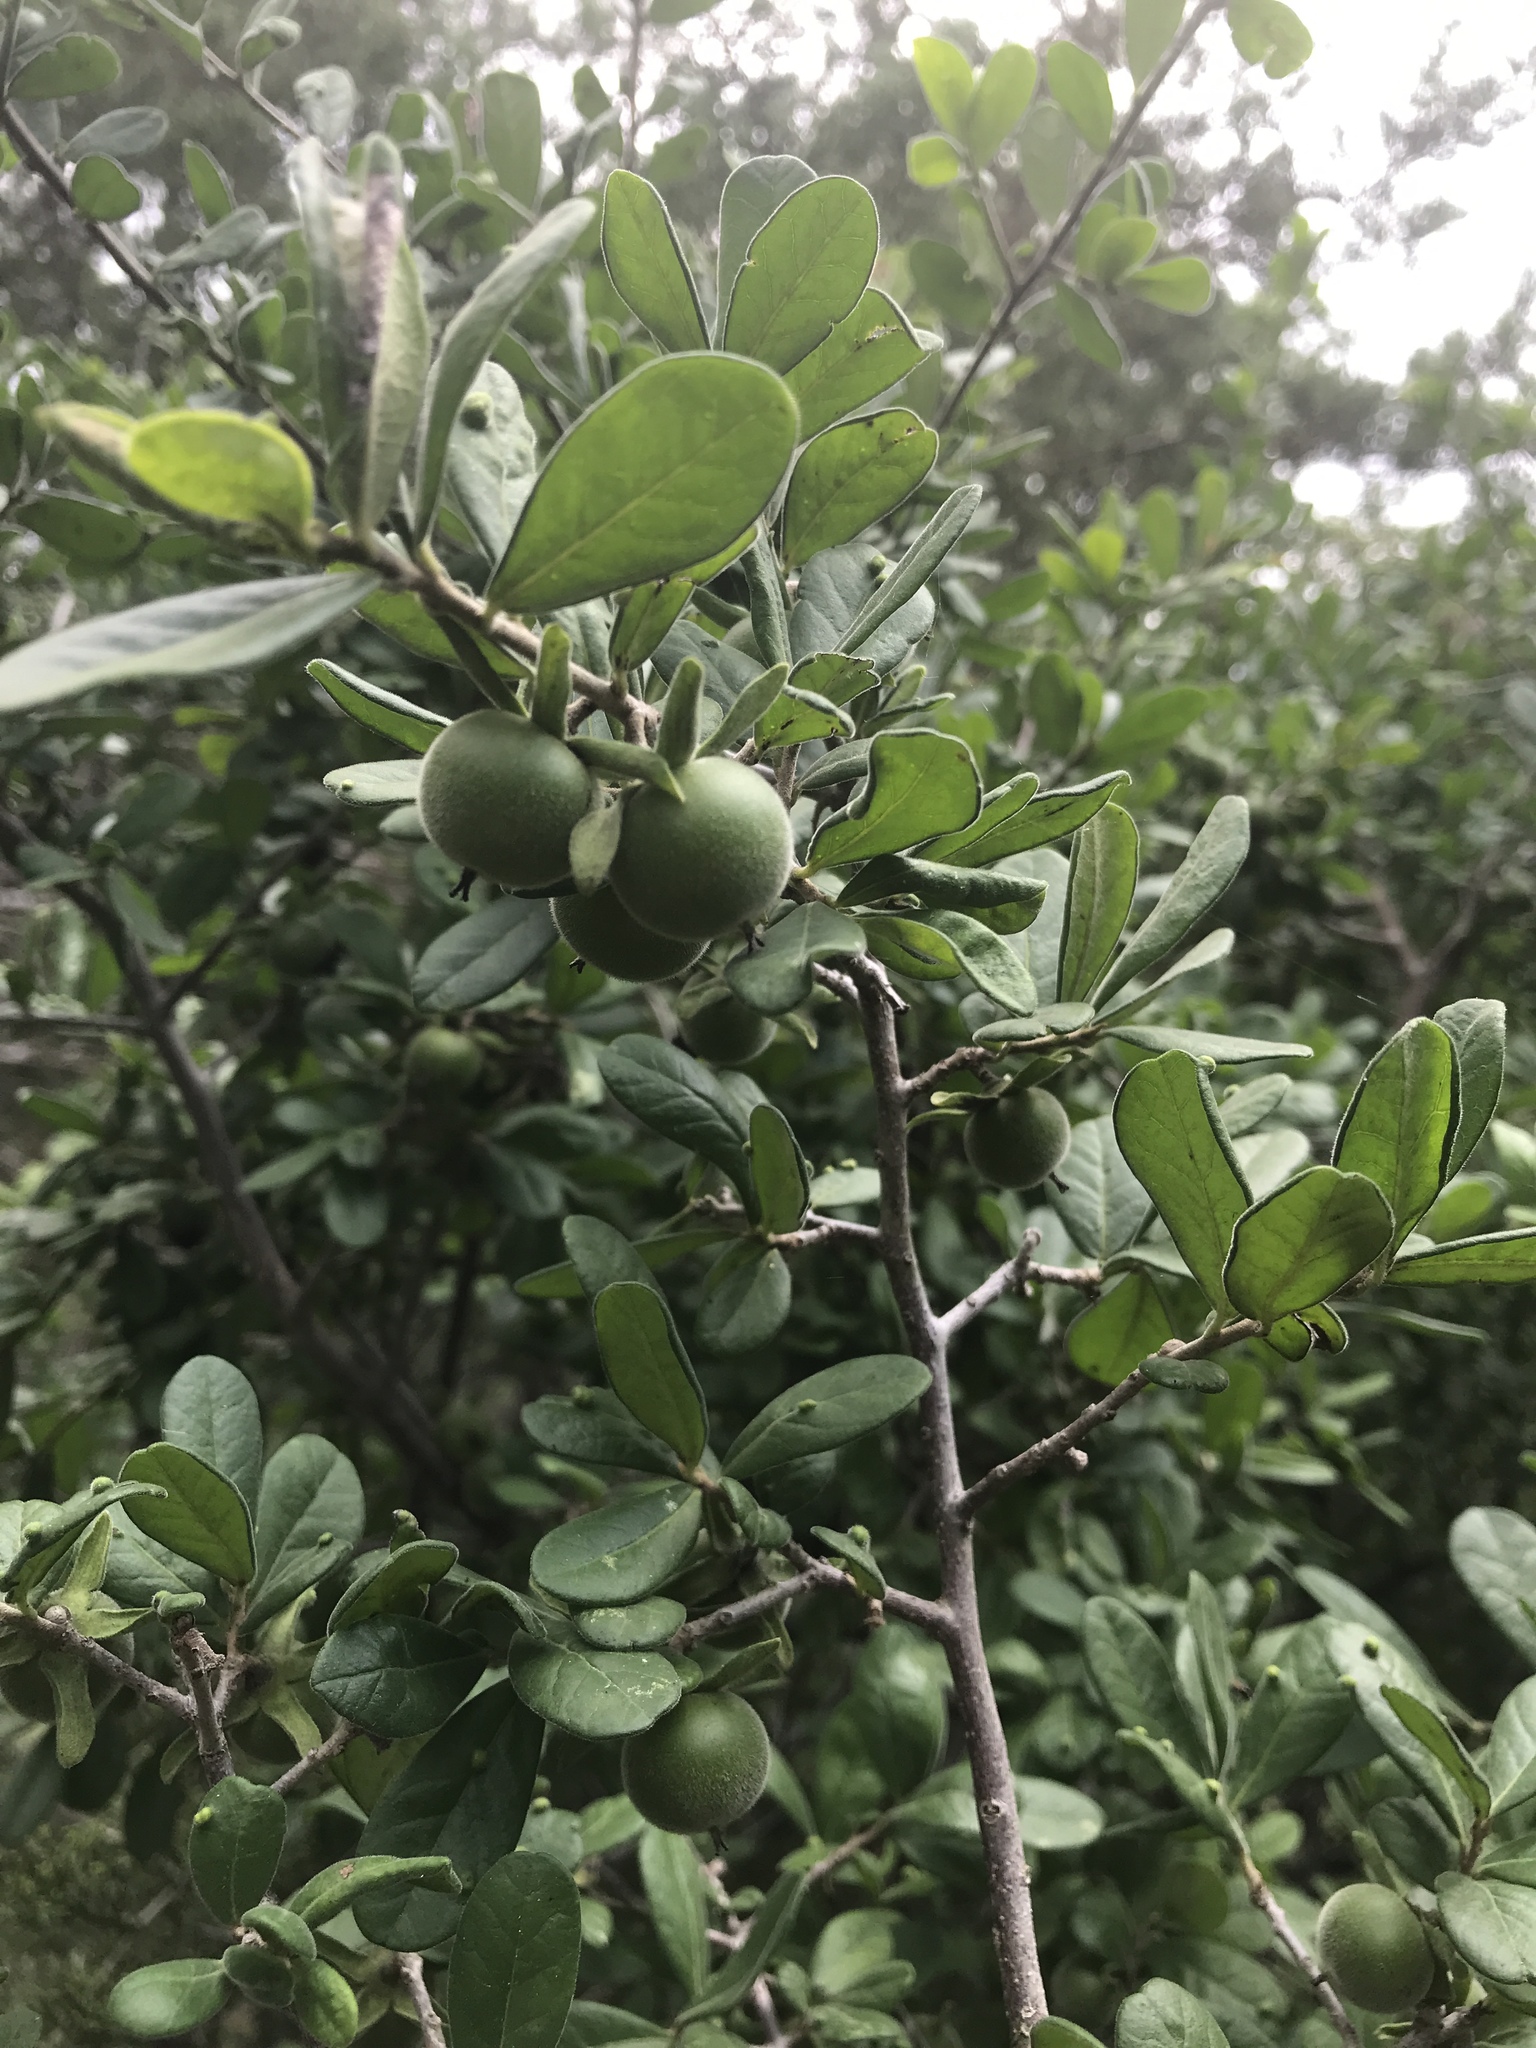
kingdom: Plantae
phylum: Tracheophyta
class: Magnoliopsida
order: Ericales
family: Ebenaceae
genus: Diospyros
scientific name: Diospyros texana
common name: Texas persimmon
